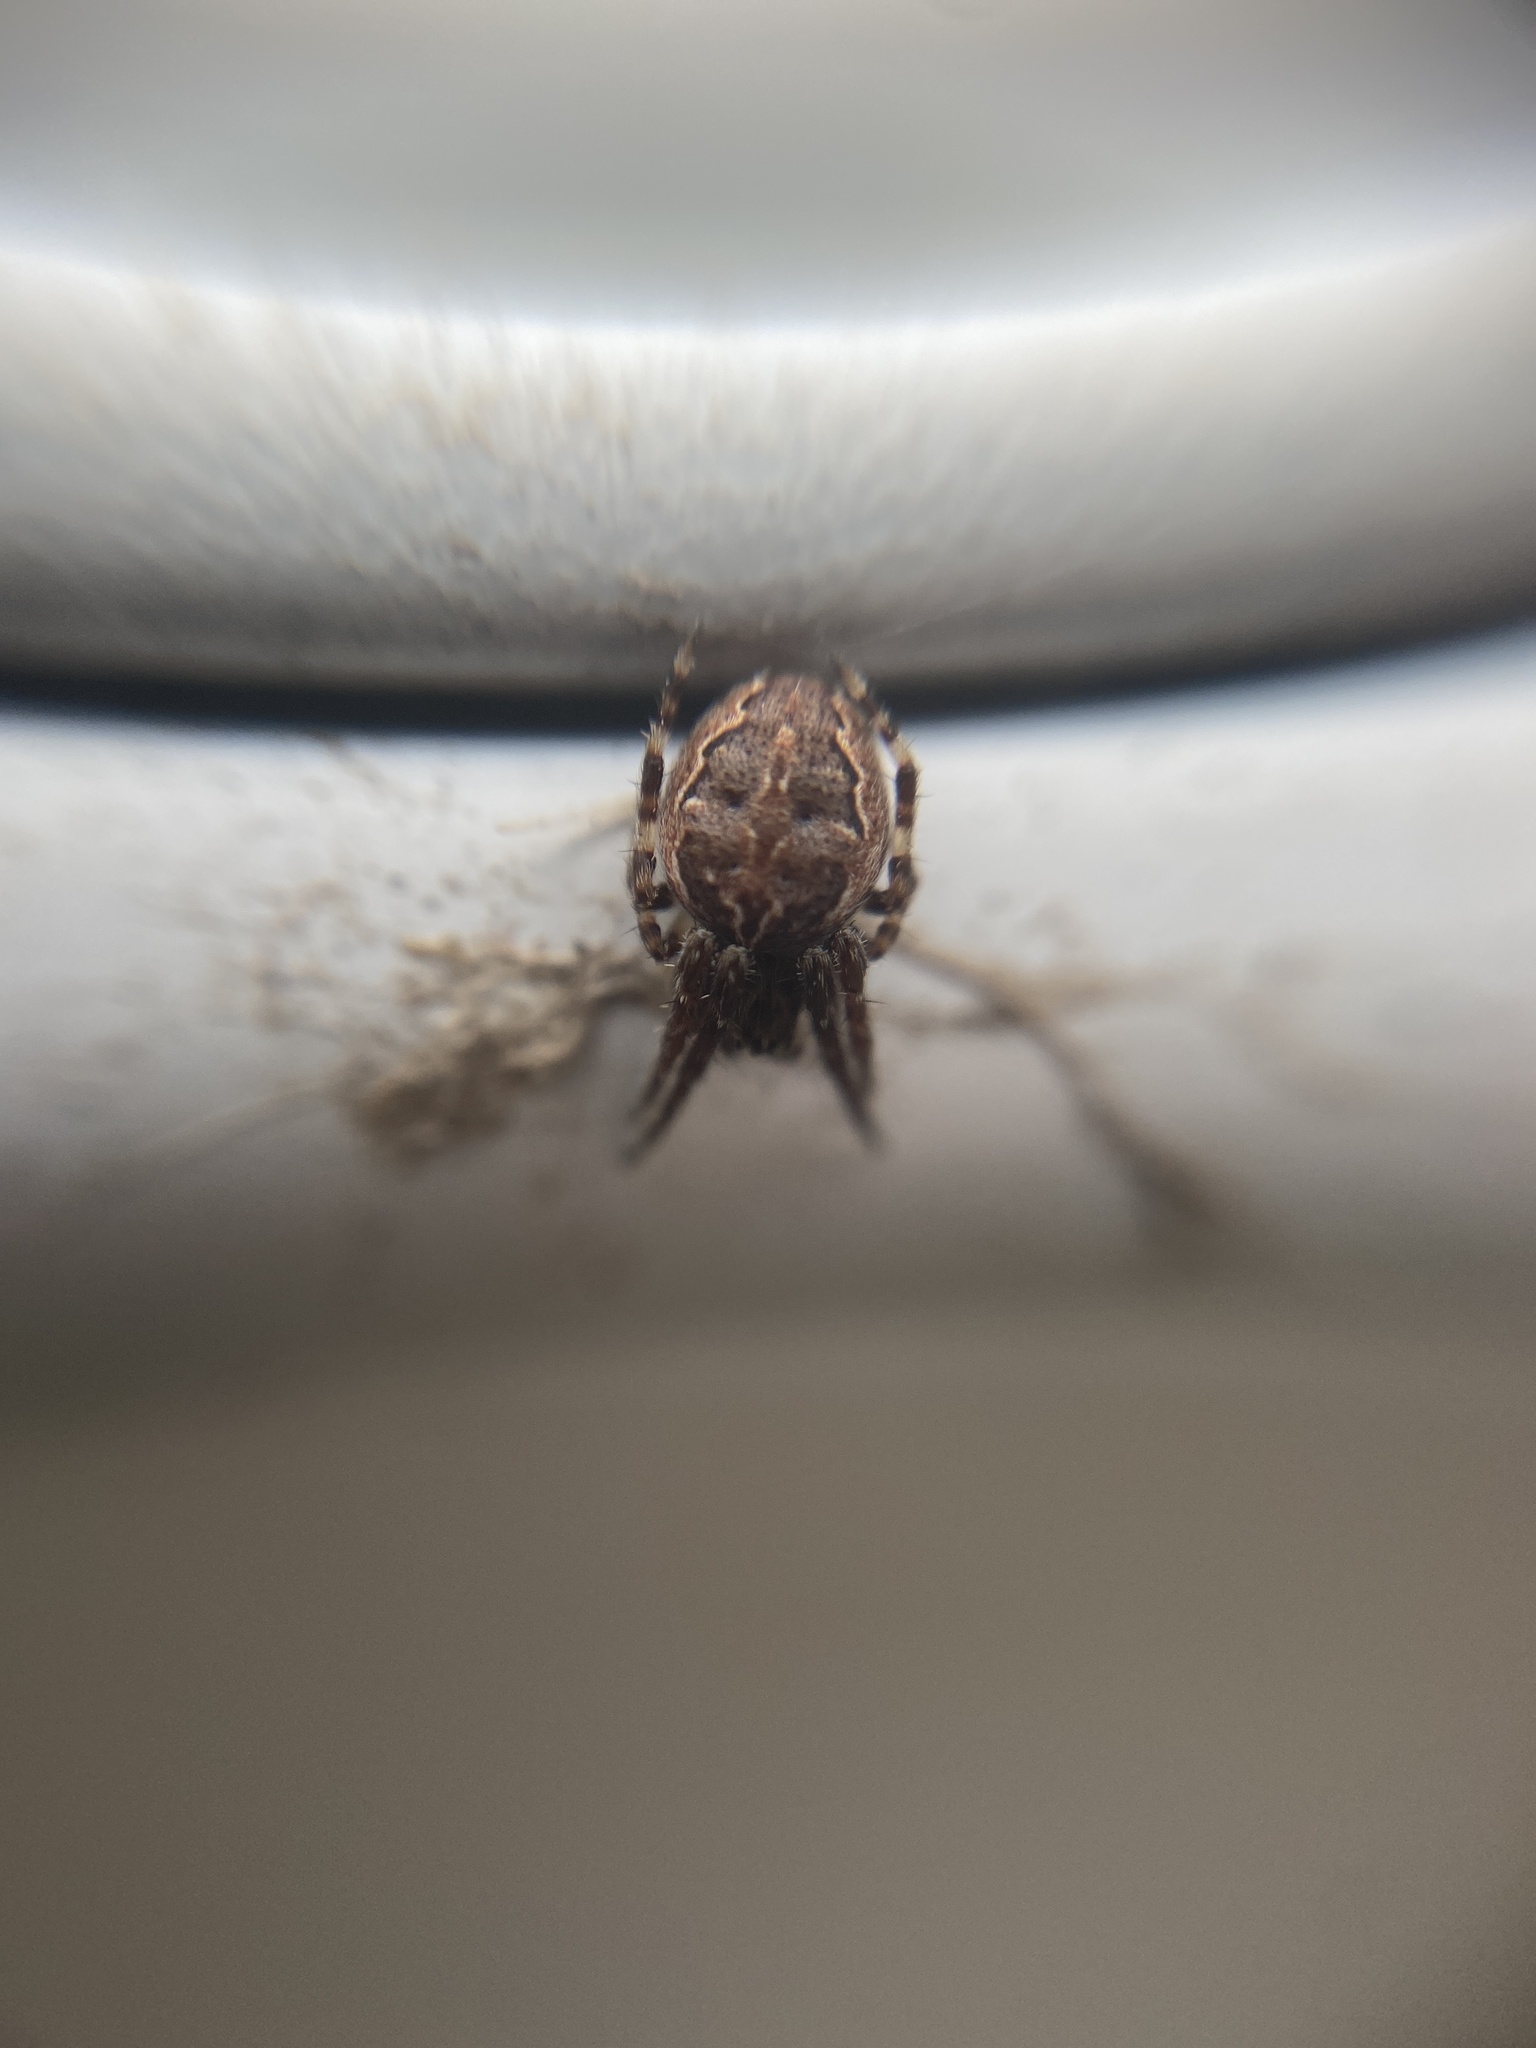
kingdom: Animalia
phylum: Arthropoda
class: Arachnida
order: Araneae
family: Araneidae
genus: Larinioides
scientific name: Larinioides sclopetarius
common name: Bridge orbweaver
